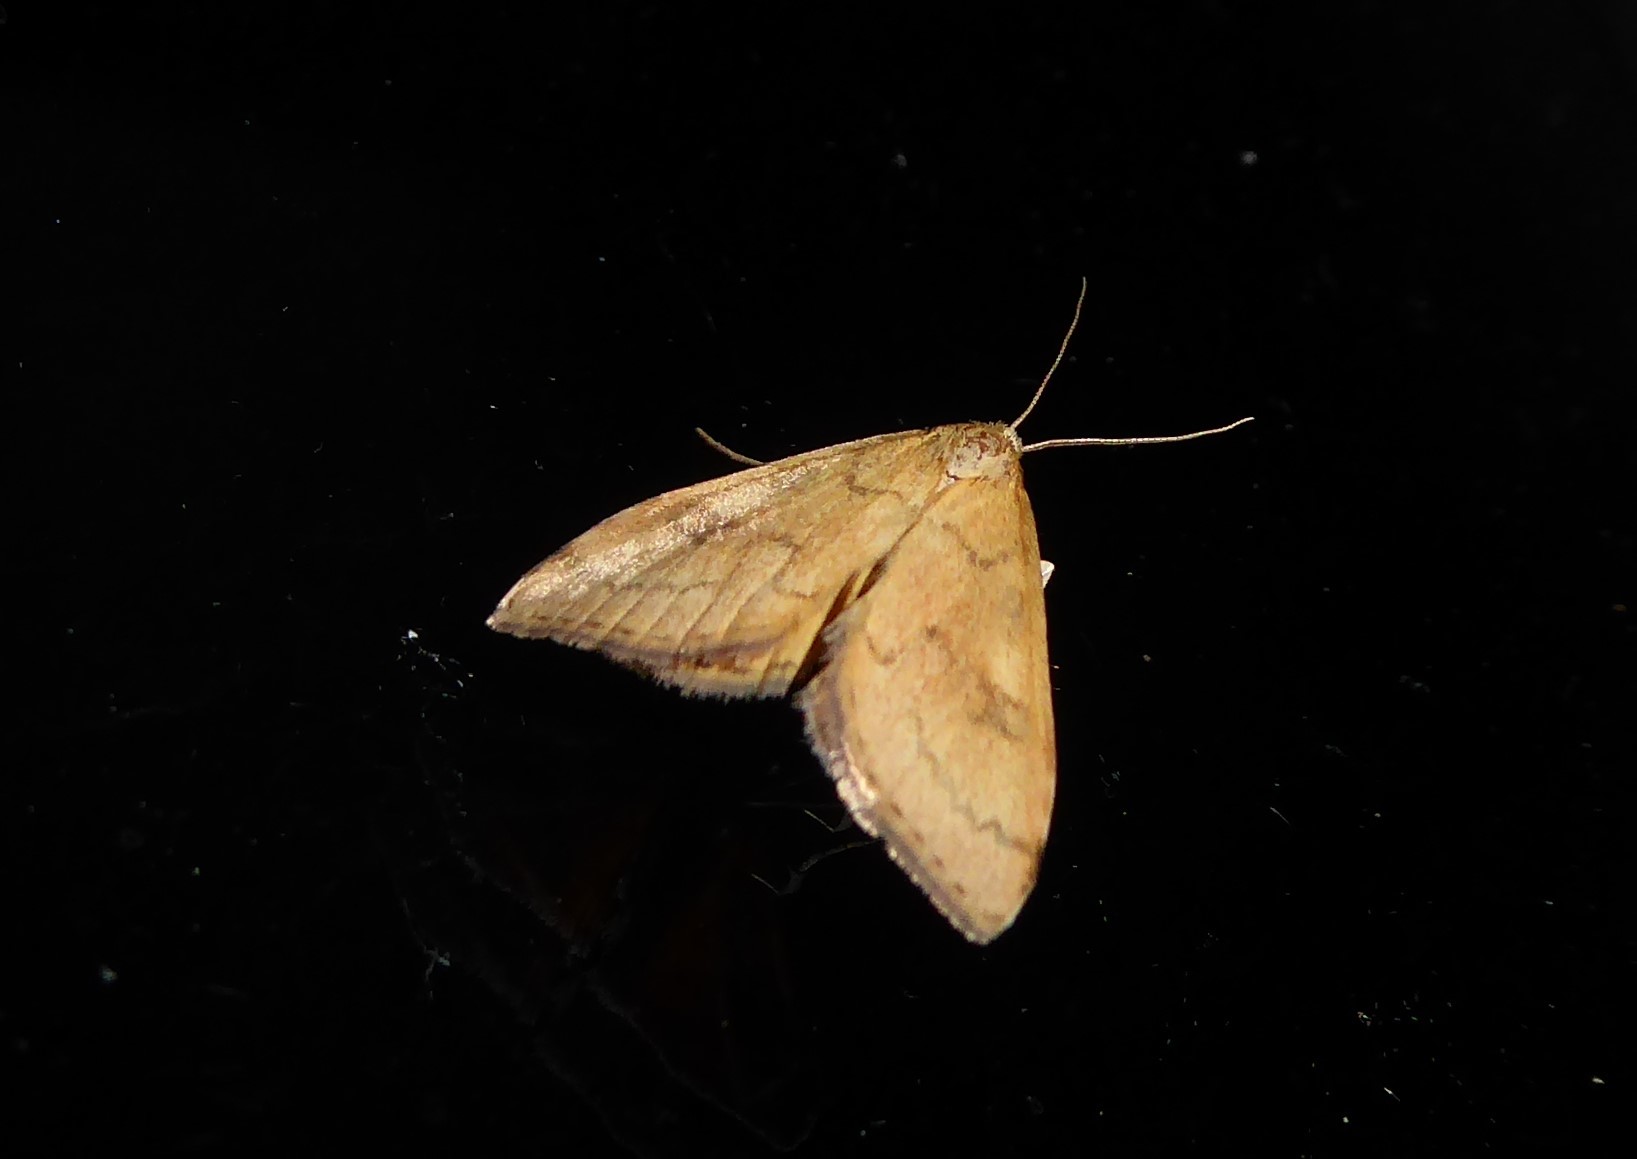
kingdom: Animalia
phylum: Arthropoda
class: Insecta
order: Lepidoptera
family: Crambidae
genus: Udea
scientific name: Udea Mnesictena flavidalis
